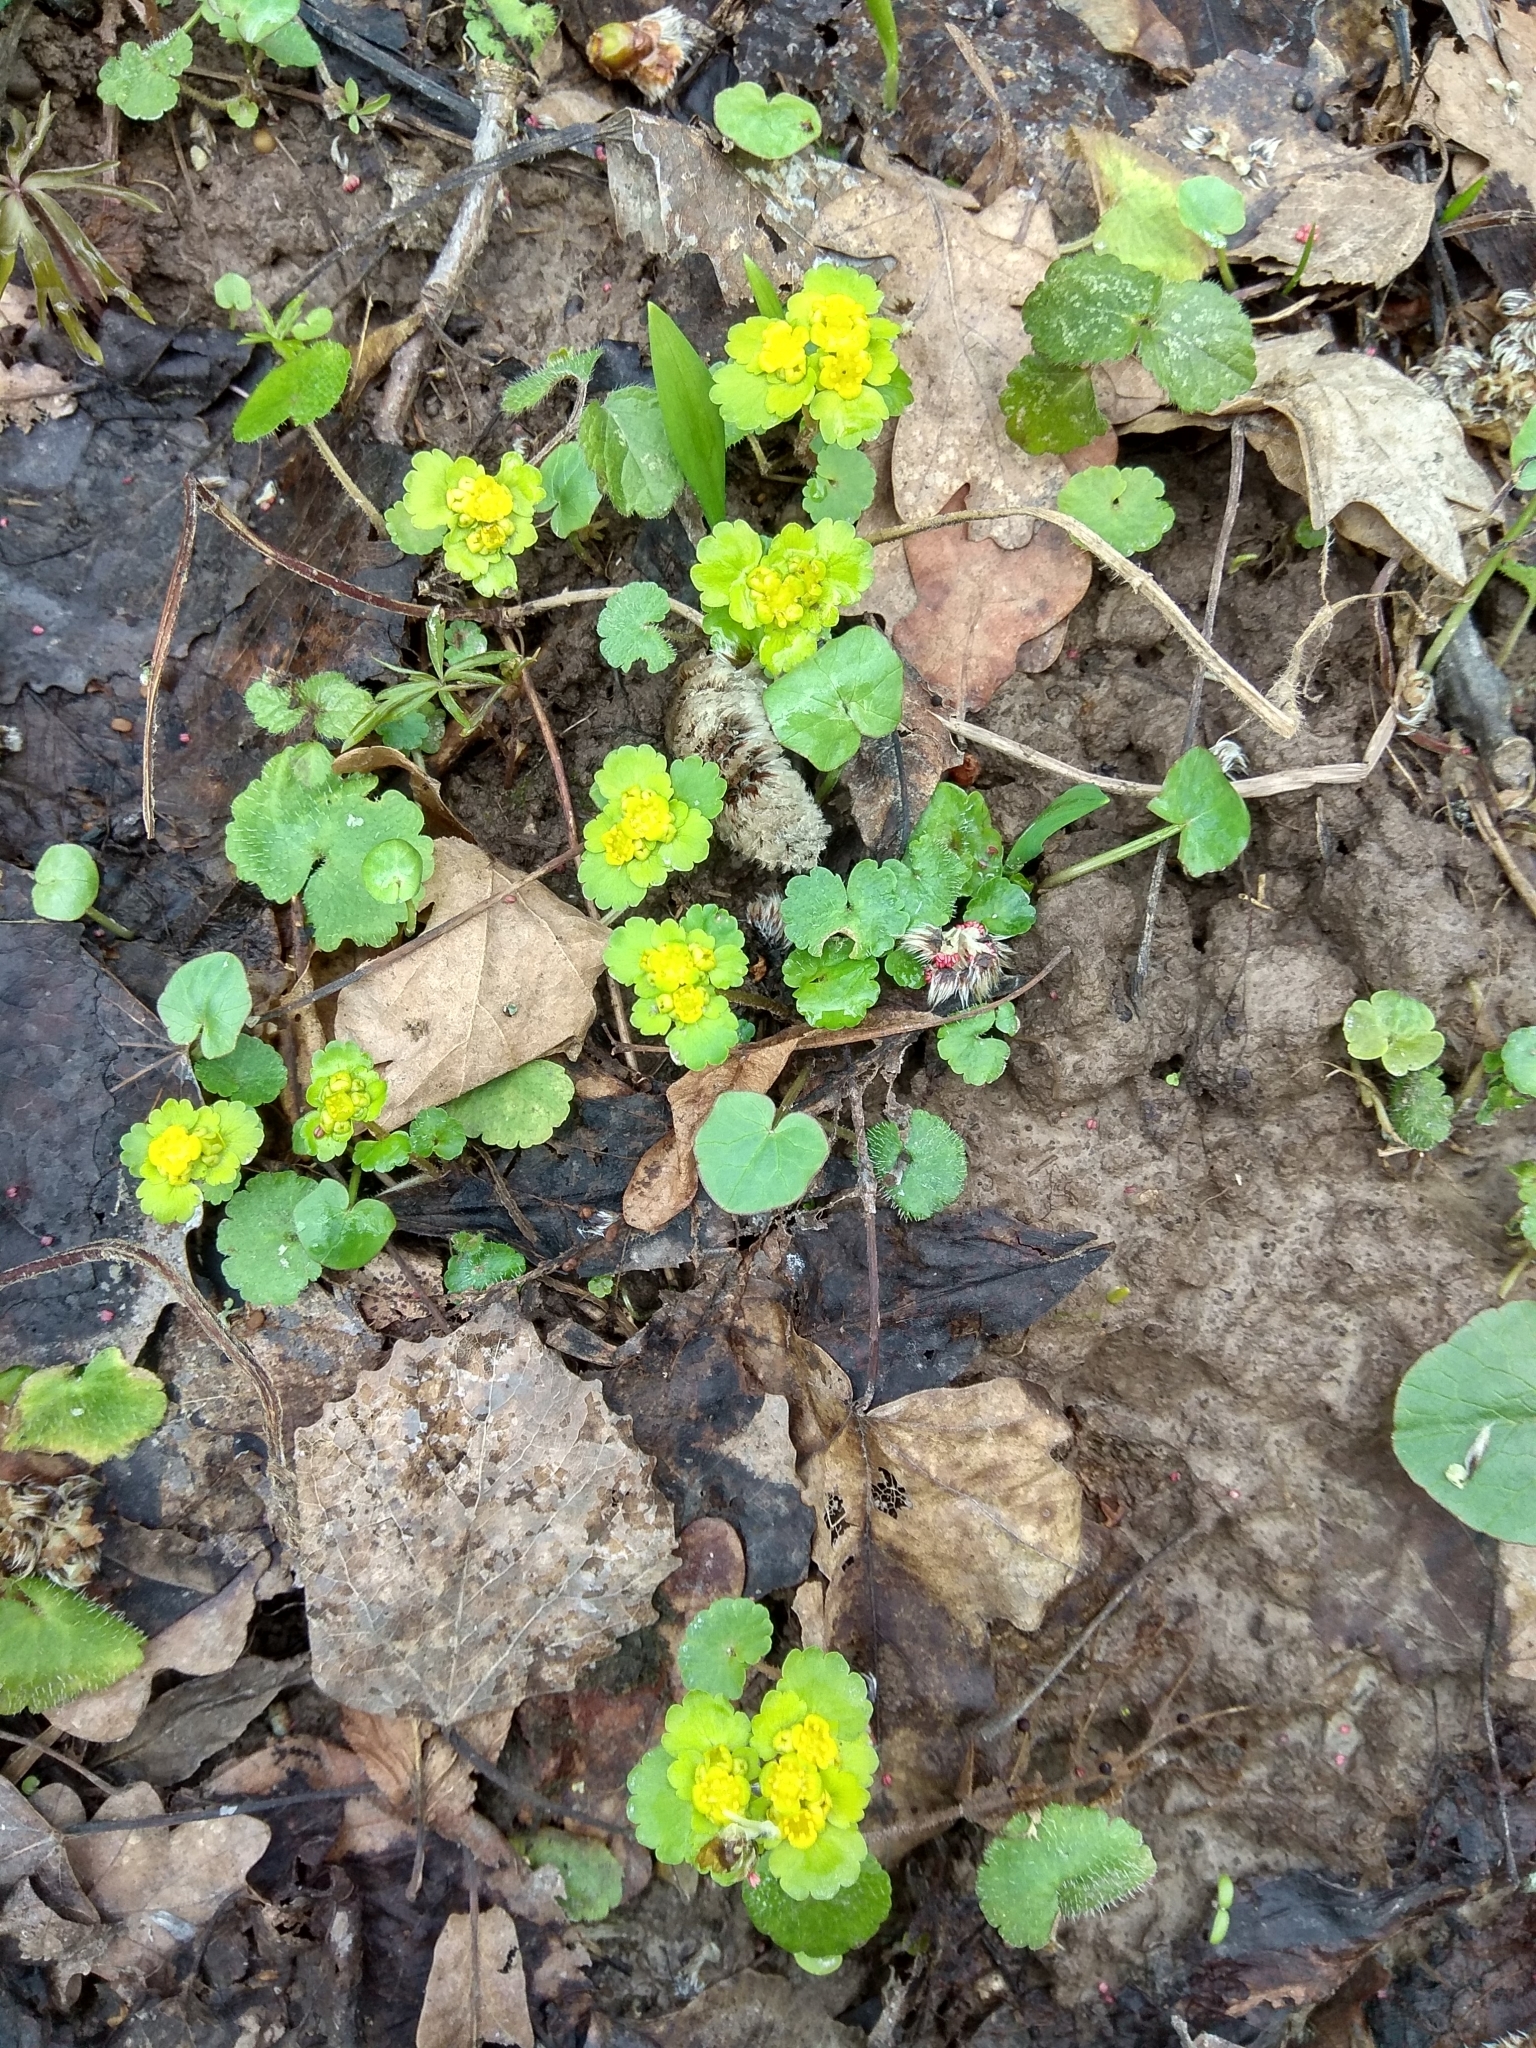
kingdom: Plantae
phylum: Tracheophyta
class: Magnoliopsida
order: Saxifragales
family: Saxifragaceae
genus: Chrysosplenium
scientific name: Chrysosplenium alternifolium
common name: Alternate-leaved golden-saxifrage
